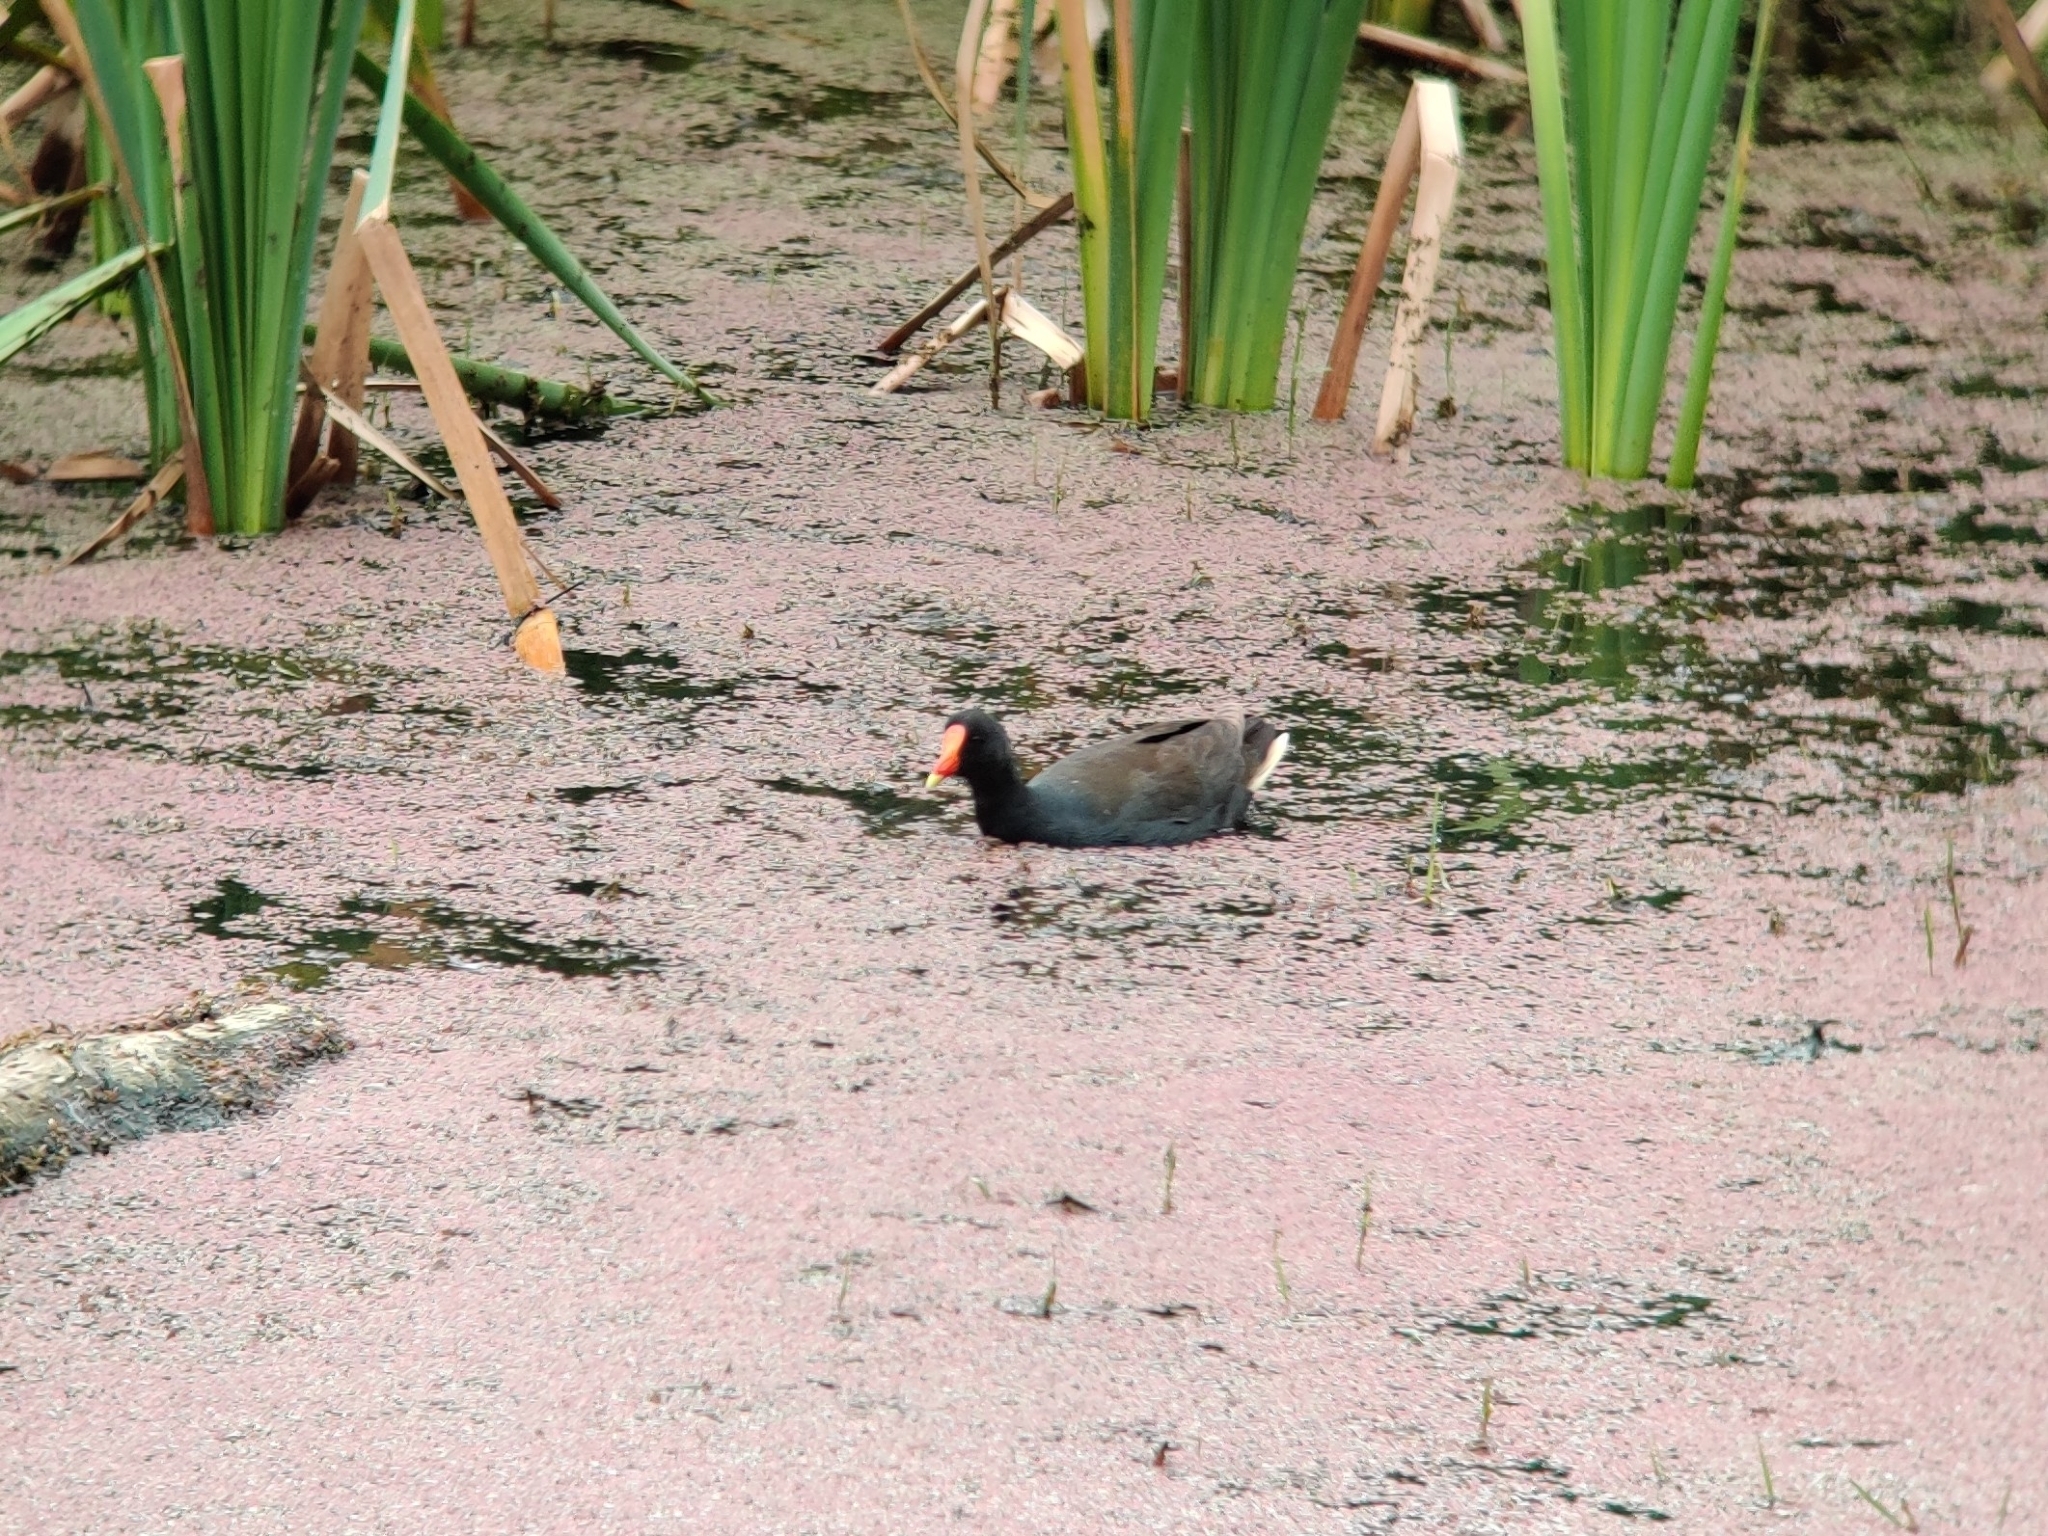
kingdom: Animalia
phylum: Chordata
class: Aves
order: Gruiformes
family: Rallidae
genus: Gallinula
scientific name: Gallinula tenebrosa
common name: Dusky moorhen
